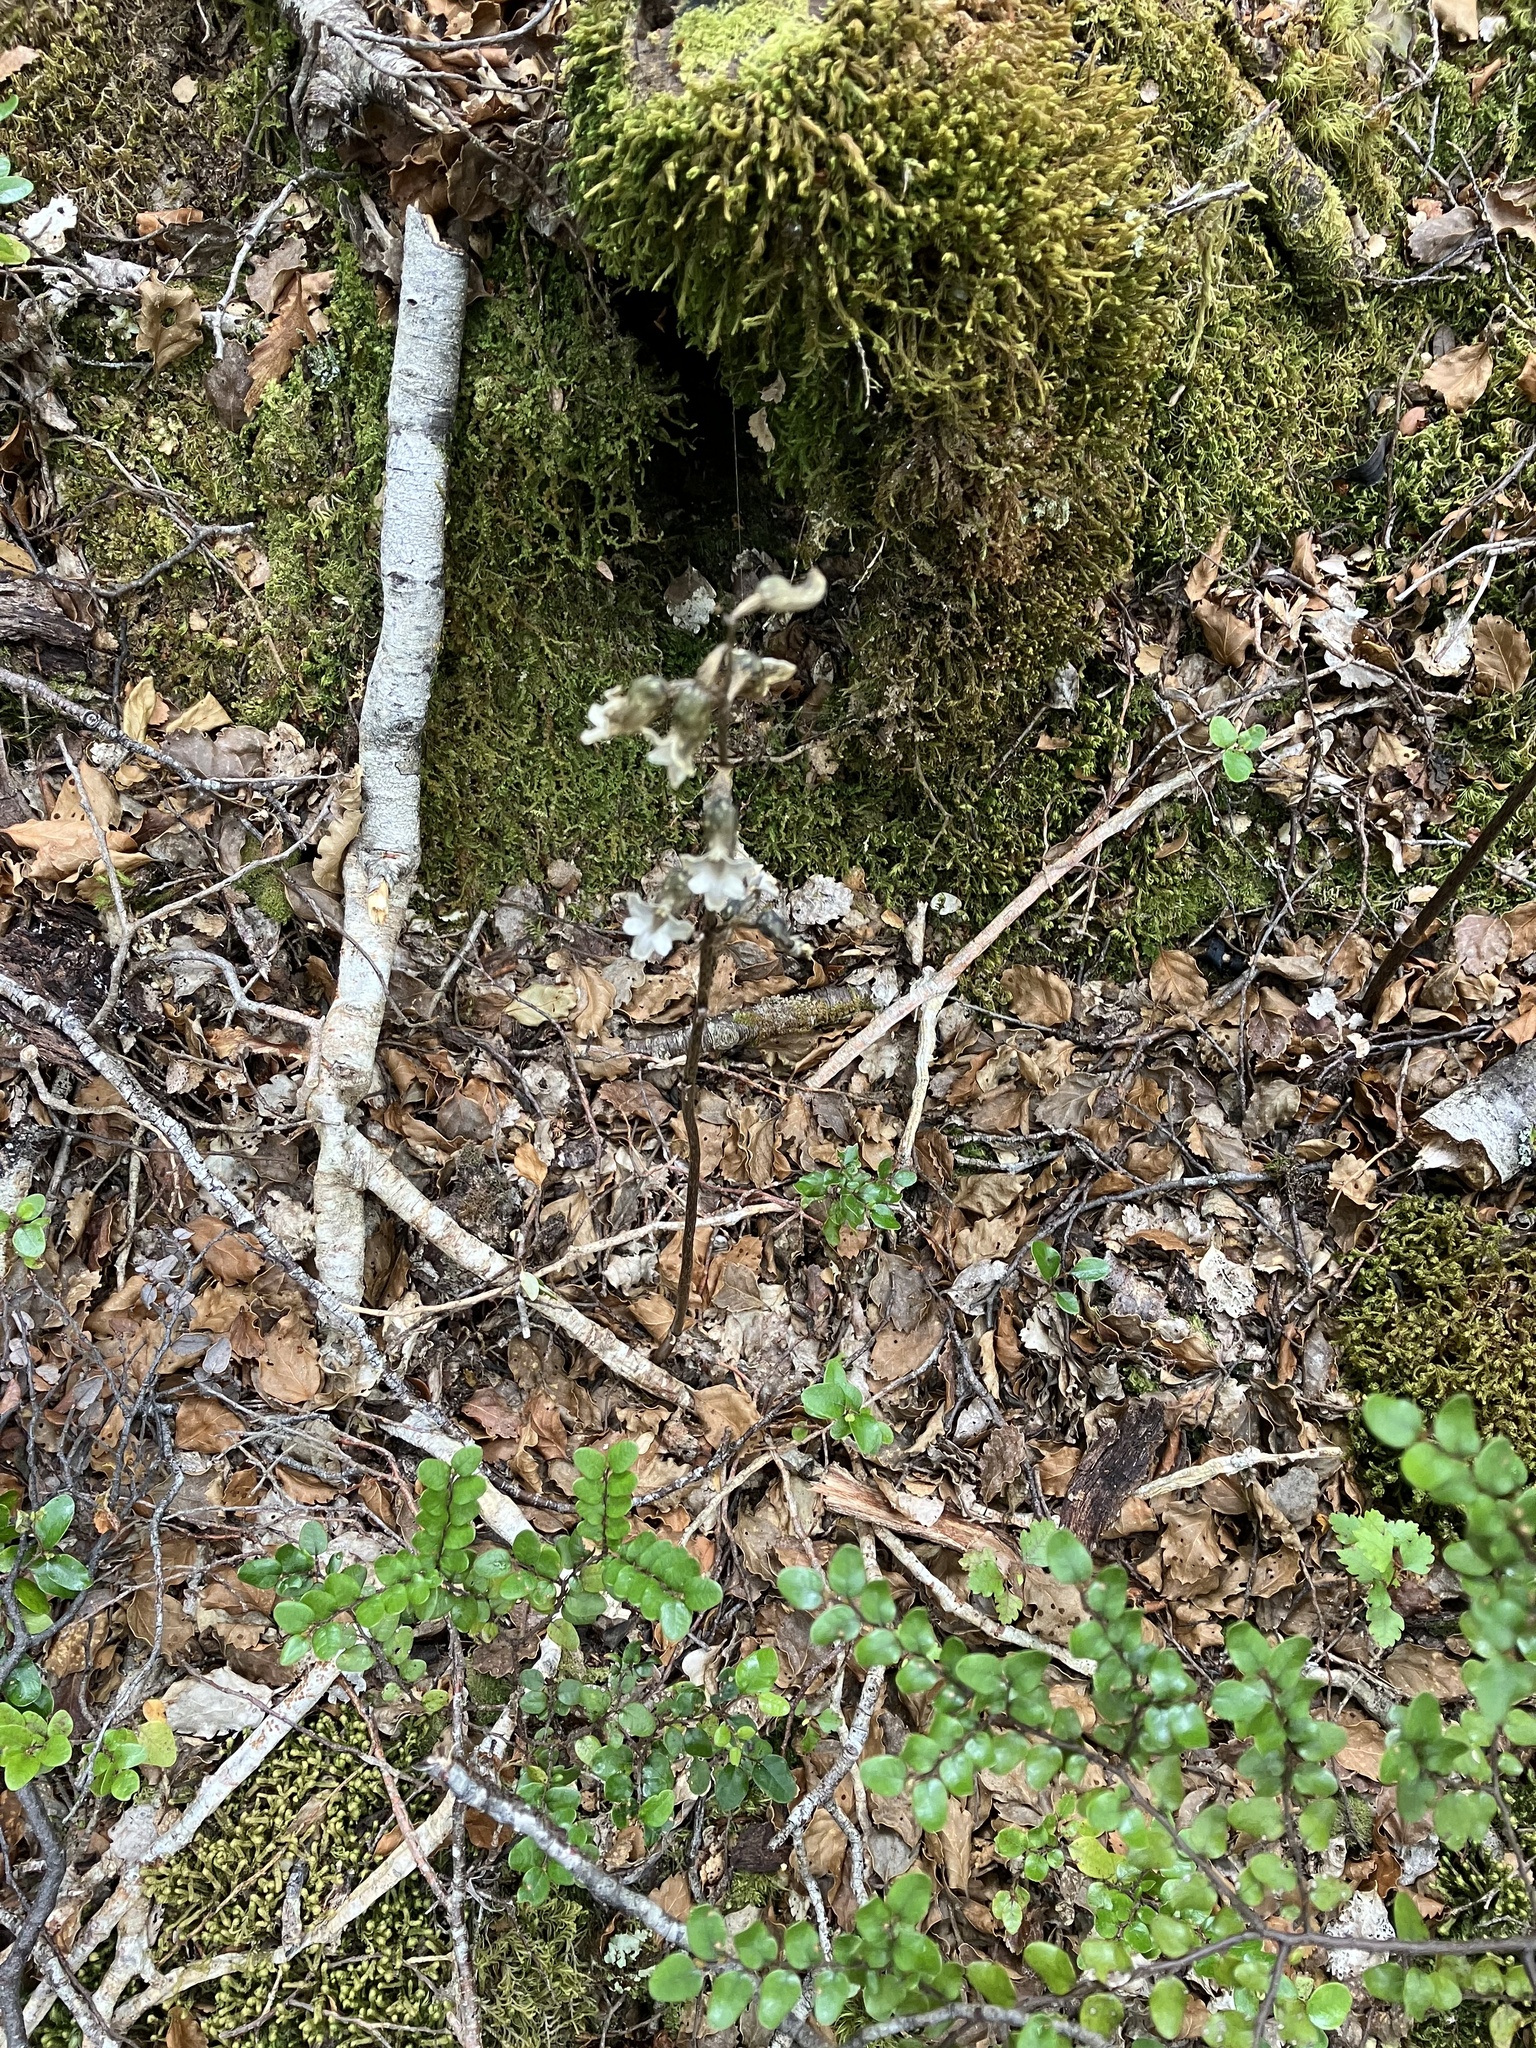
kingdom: Plantae
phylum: Tracheophyta
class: Liliopsida
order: Asparagales
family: Orchidaceae
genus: Gastrodia
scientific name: Gastrodia cunninghamii
